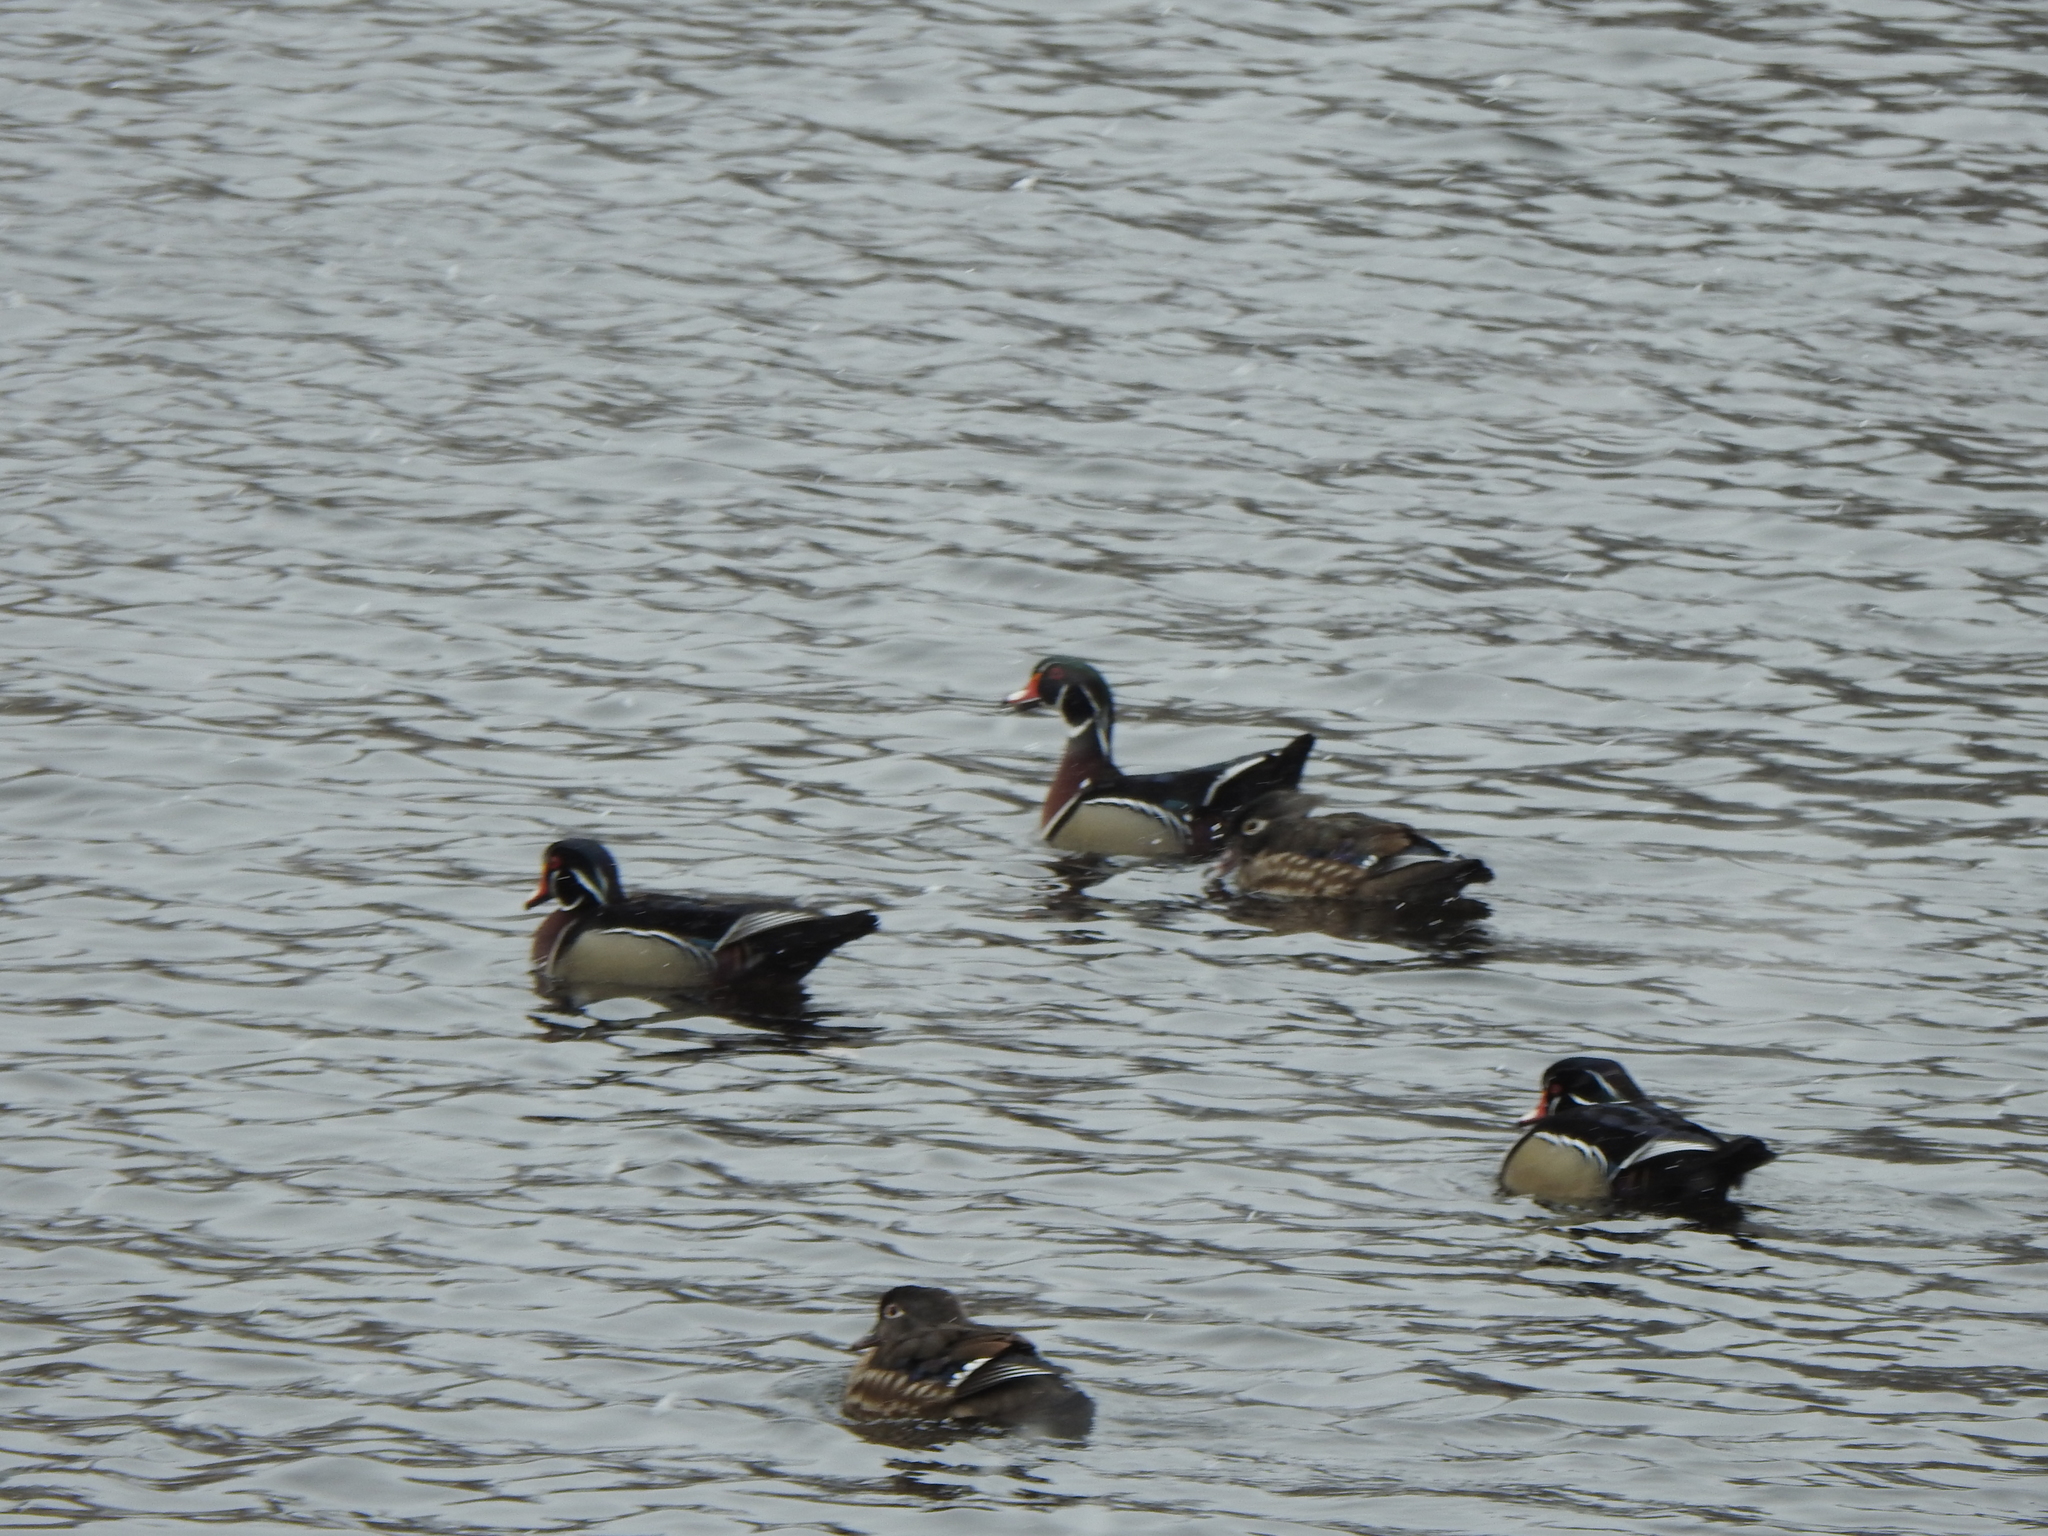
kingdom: Animalia
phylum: Chordata
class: Aves
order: Anseriformes
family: Anatidae
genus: Aix
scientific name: Aix sponsa
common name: Wood duck
